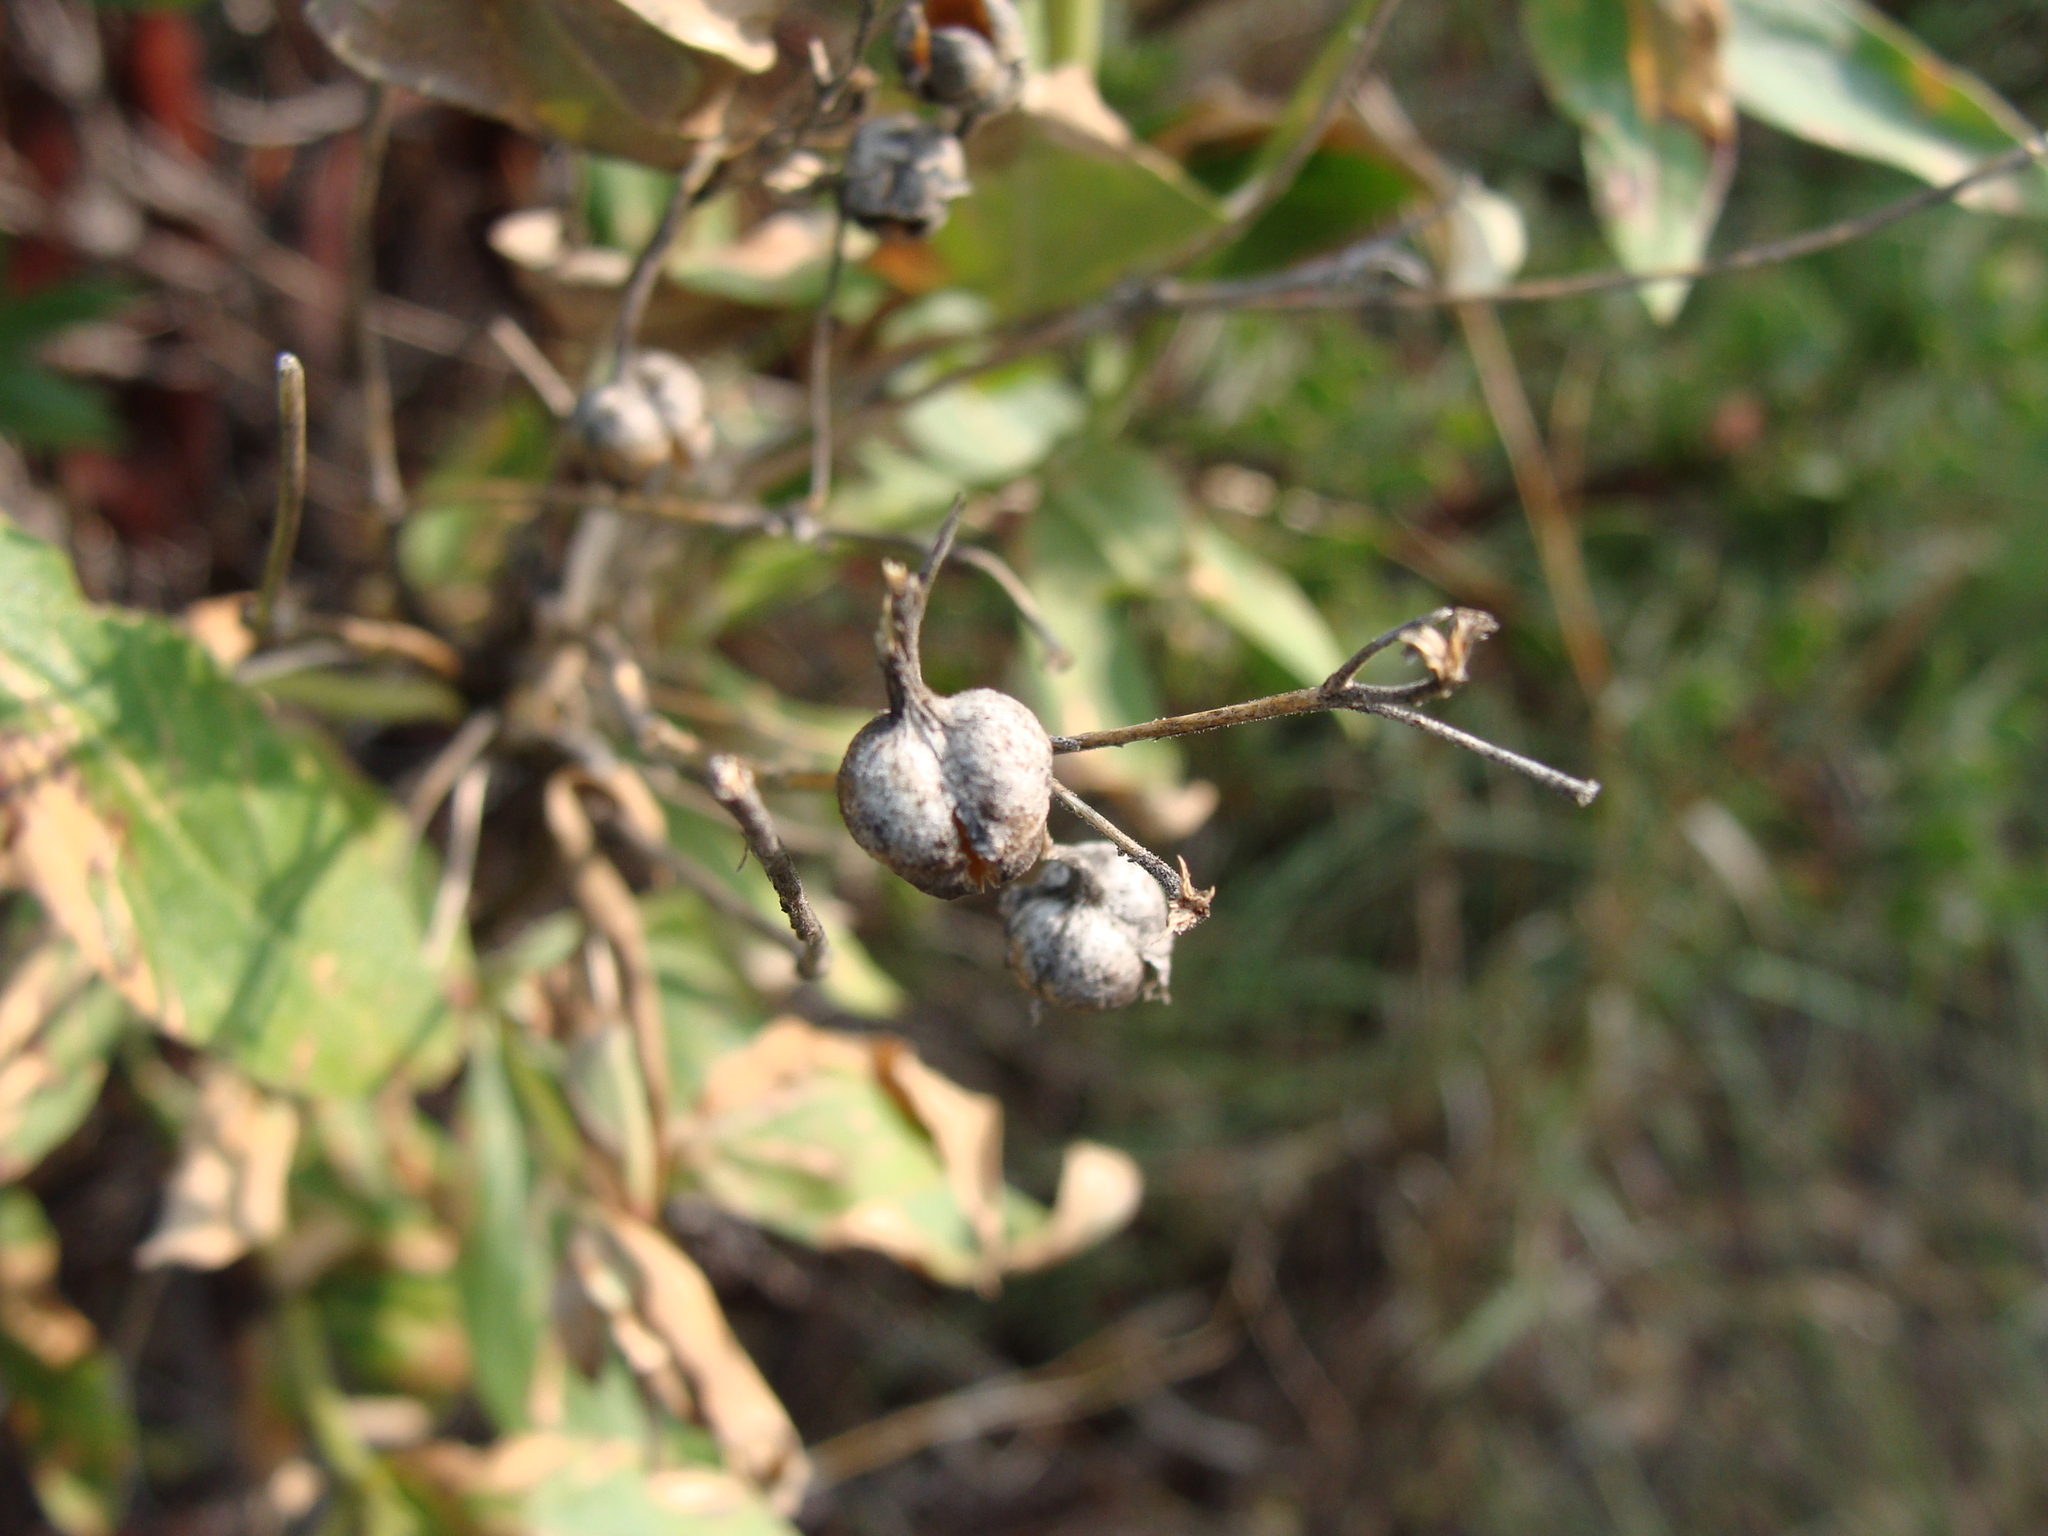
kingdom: Plantae
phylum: Tracheophyta
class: Magnoliopsida
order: Gentianales
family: Rubiaceae
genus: Bouvardia
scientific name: Bouvardia ternifolia
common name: Scarlet bouvardia
